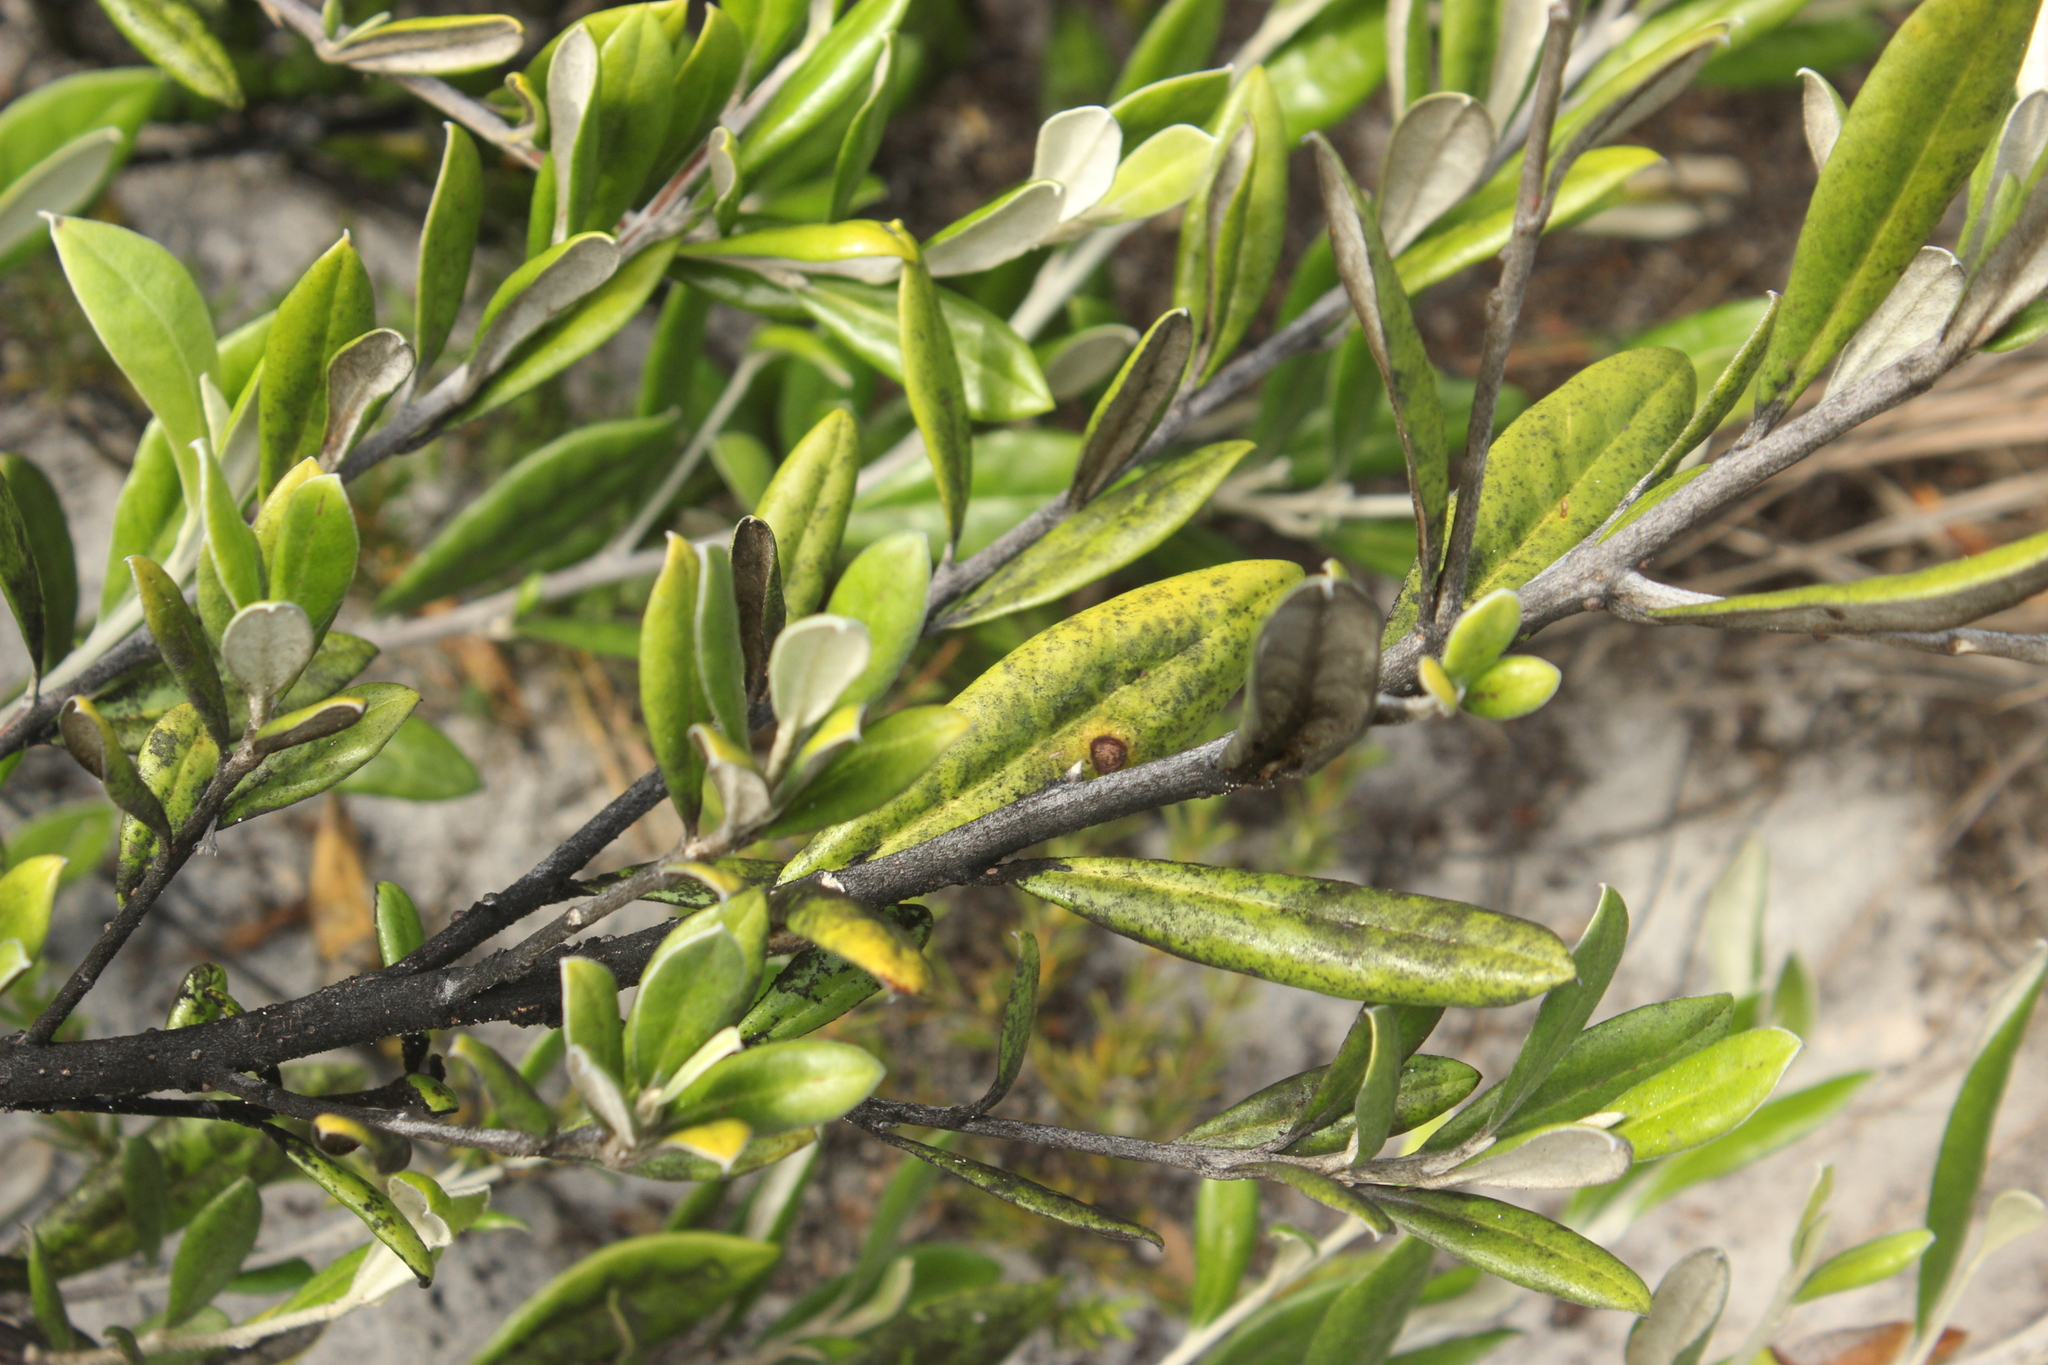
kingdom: Plantae
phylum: Tracheophyta
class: Magnoliopsida
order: Asterales
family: Argophyllaceae
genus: Corokia
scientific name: Corokia macrocarpa
